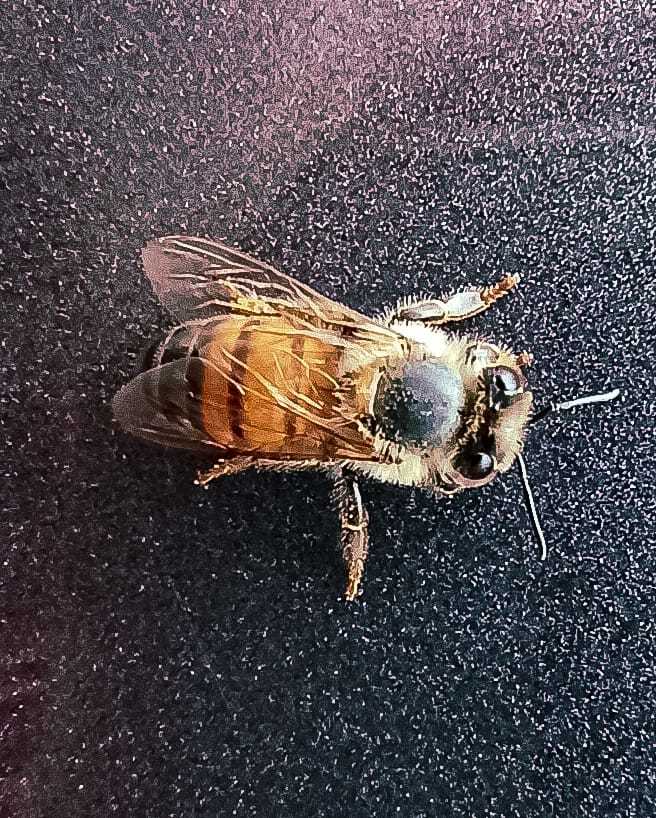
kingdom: Animalia
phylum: Arthropoda
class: Insecta
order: Hymenoptera
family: Apidae
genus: Apis
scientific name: Apis mellifera
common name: Honey bee
